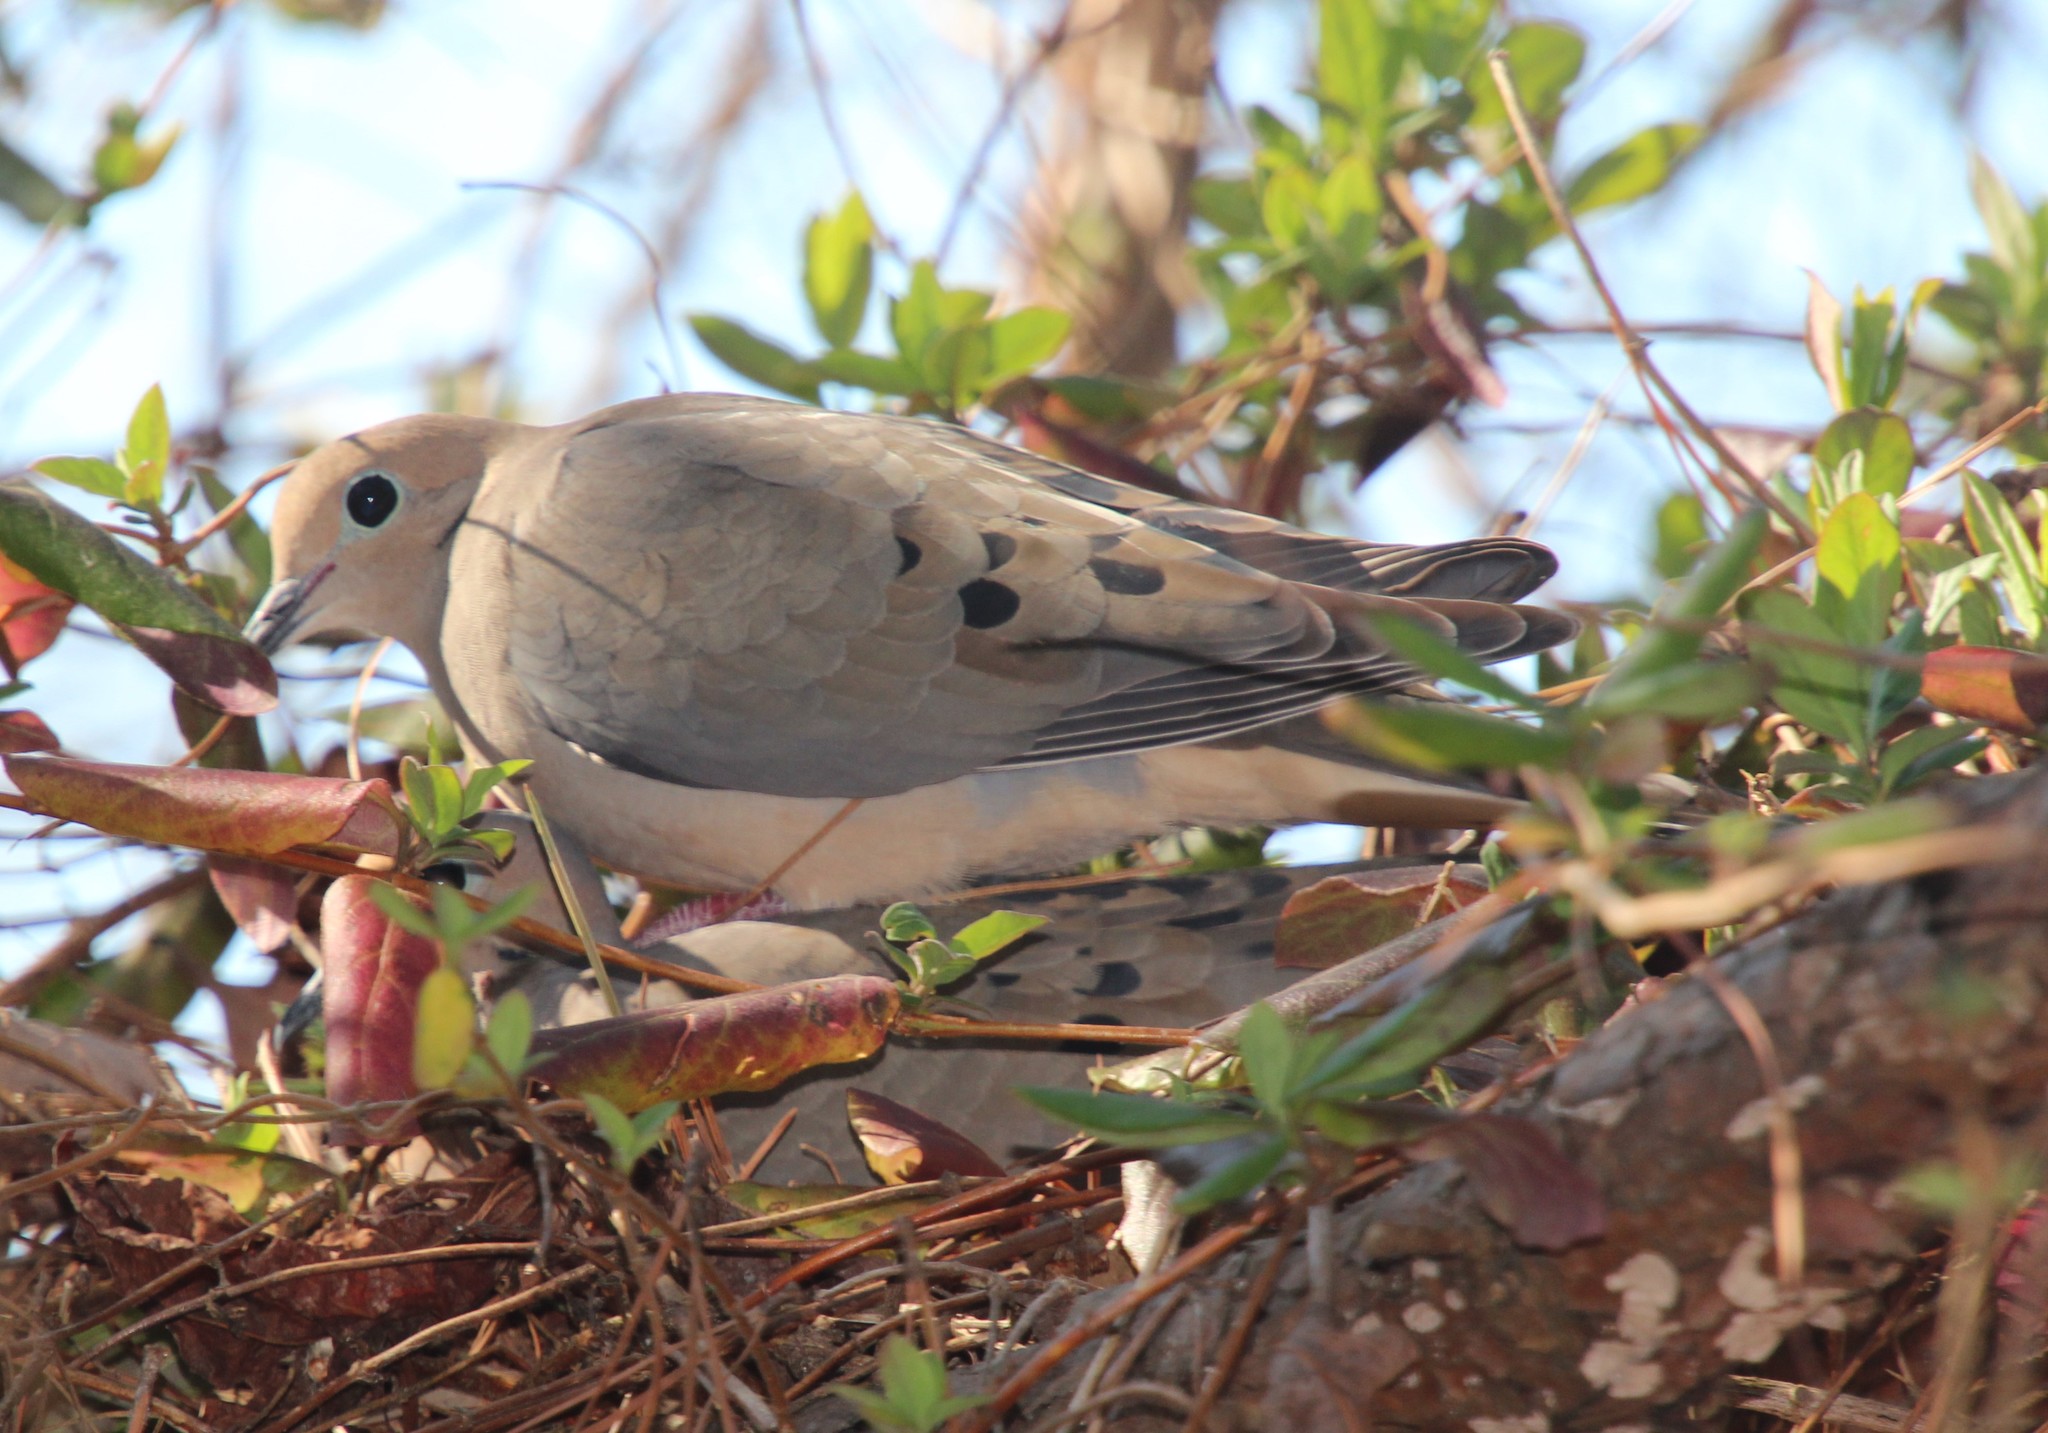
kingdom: Animalia
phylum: Chordata
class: Aves
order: Columbiformes
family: Columbidae
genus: Zenaida
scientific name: Zenaida macroura
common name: Mourning dove
